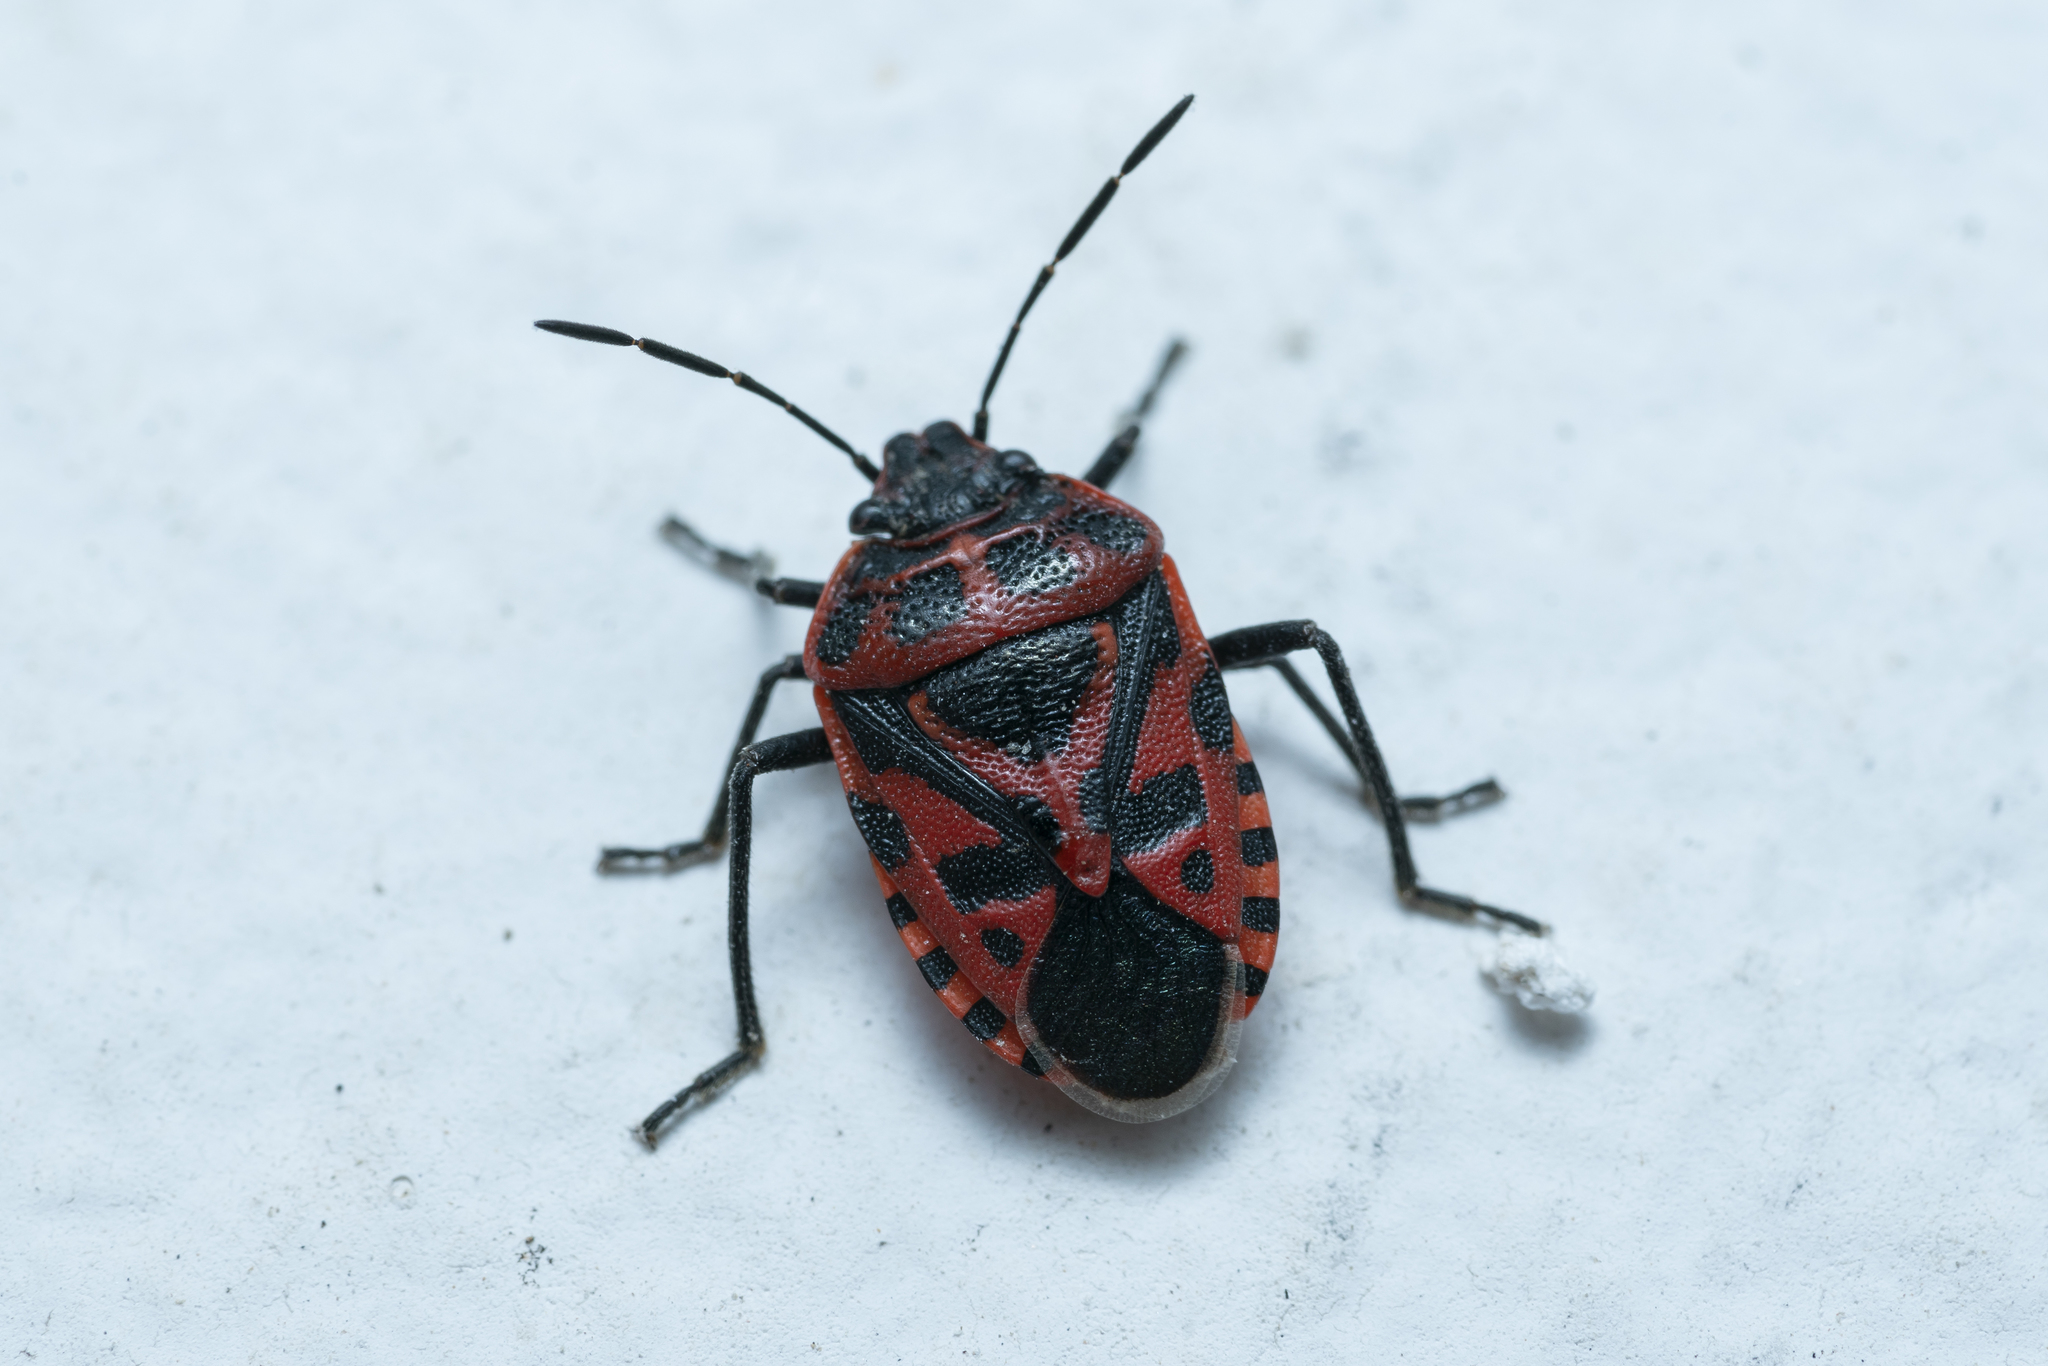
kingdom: Animalia
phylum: Arthropoda
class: Insecta
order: Hemiptera
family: Pentatomidae
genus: Eurydema
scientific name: Eurydema ventralis
